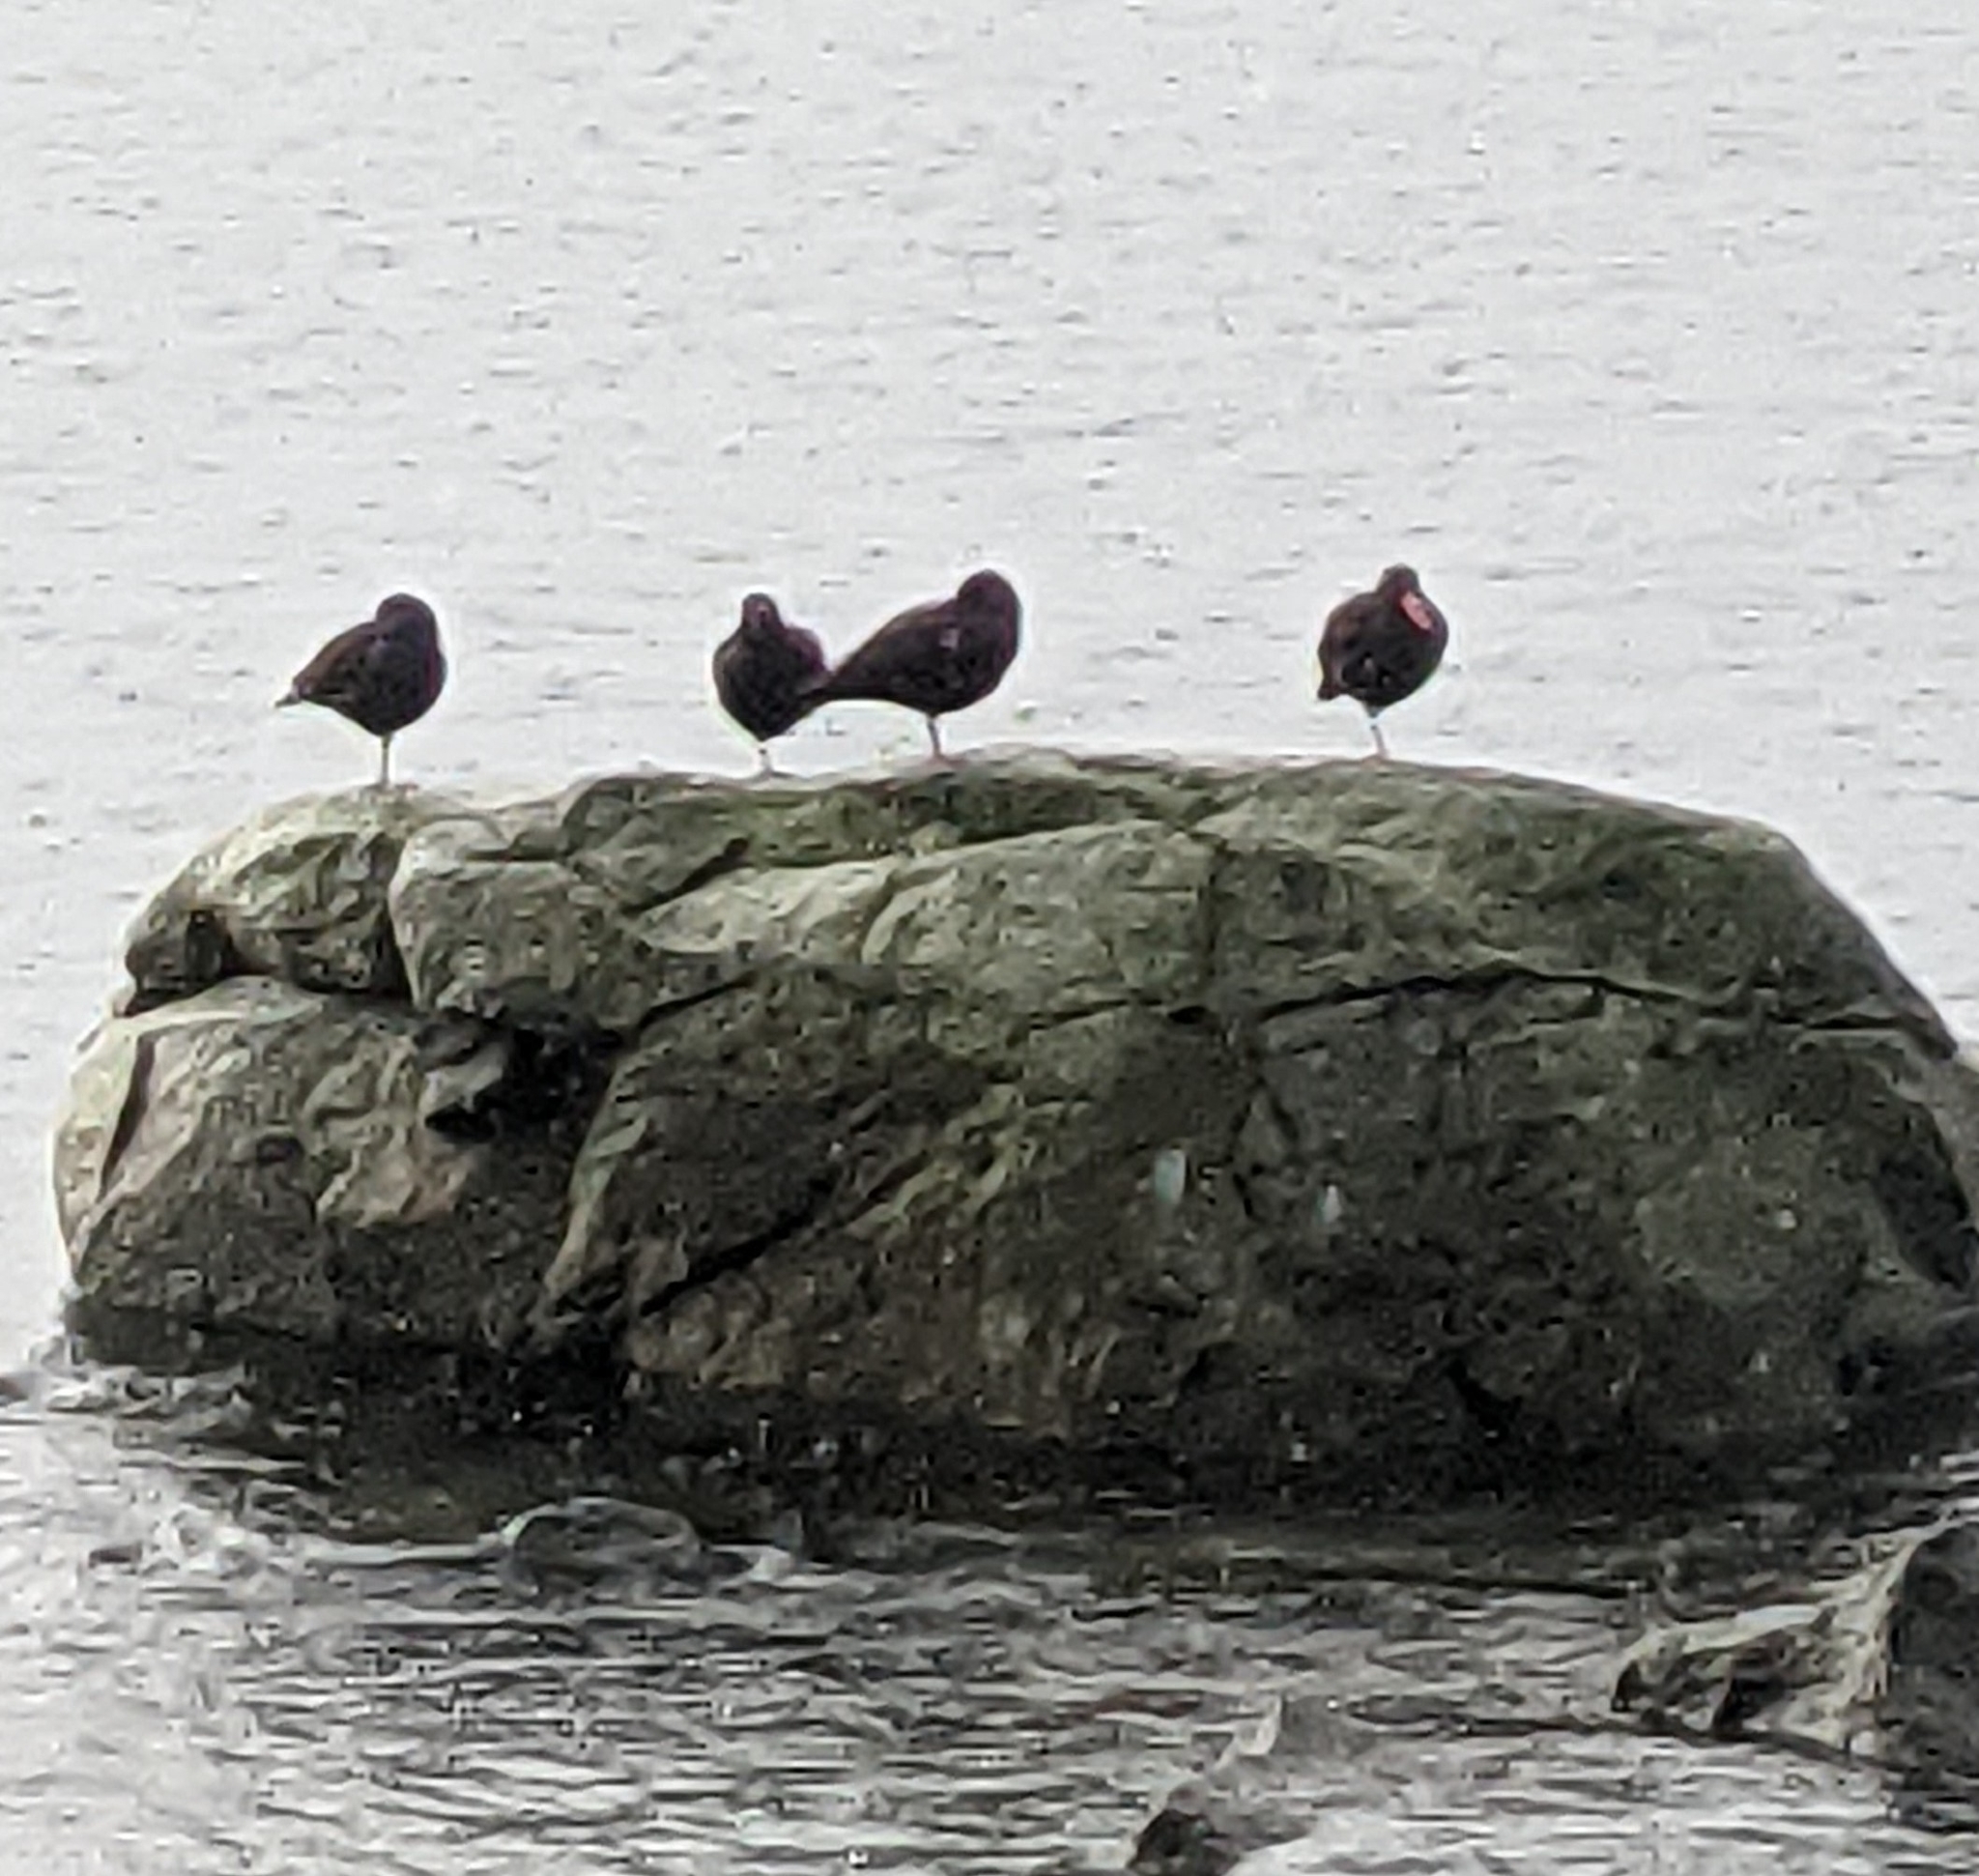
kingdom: Animalia
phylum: Chordata
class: Aves
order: Charadriiformes
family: Haematopodidae
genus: Haematopus
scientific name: Haematopus bachmani
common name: Black oystercatcher
